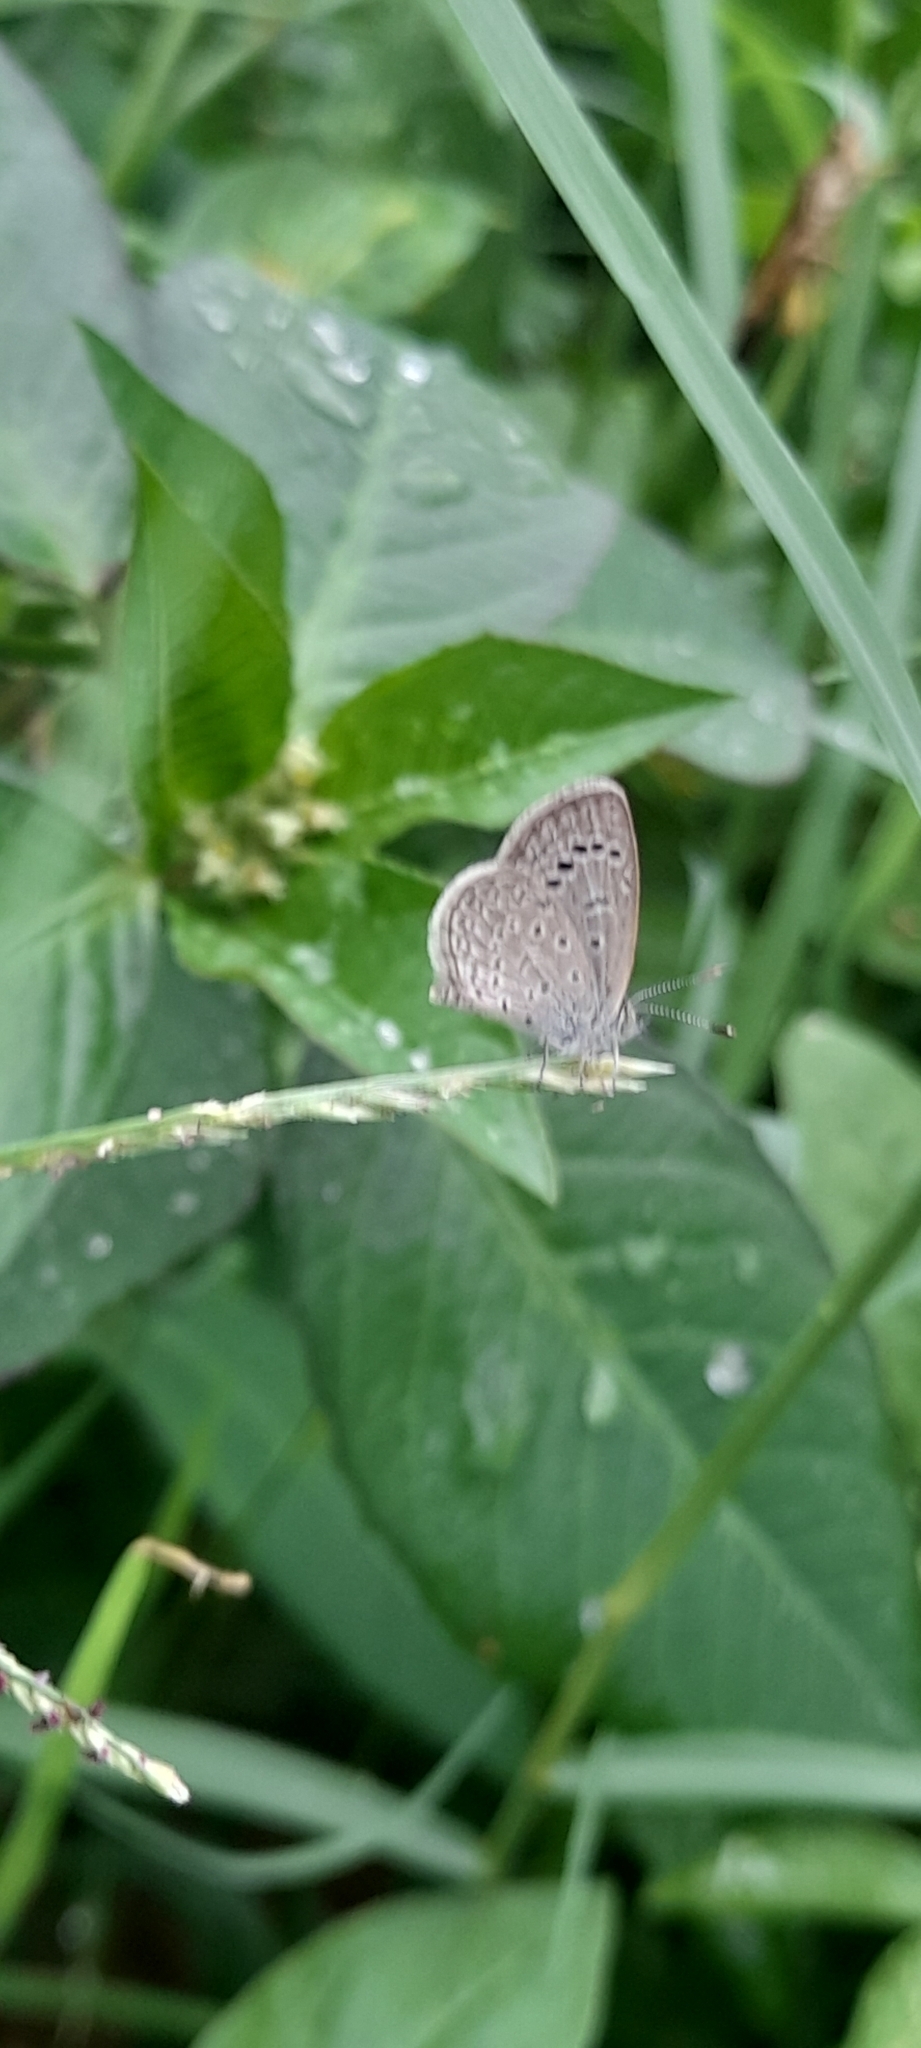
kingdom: Animalia
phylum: Arthropoda
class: Insecta
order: Lepidoptera
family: Lycaenidae
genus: Zizeeria
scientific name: Zizeeria karsandra
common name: Dark grass blue
